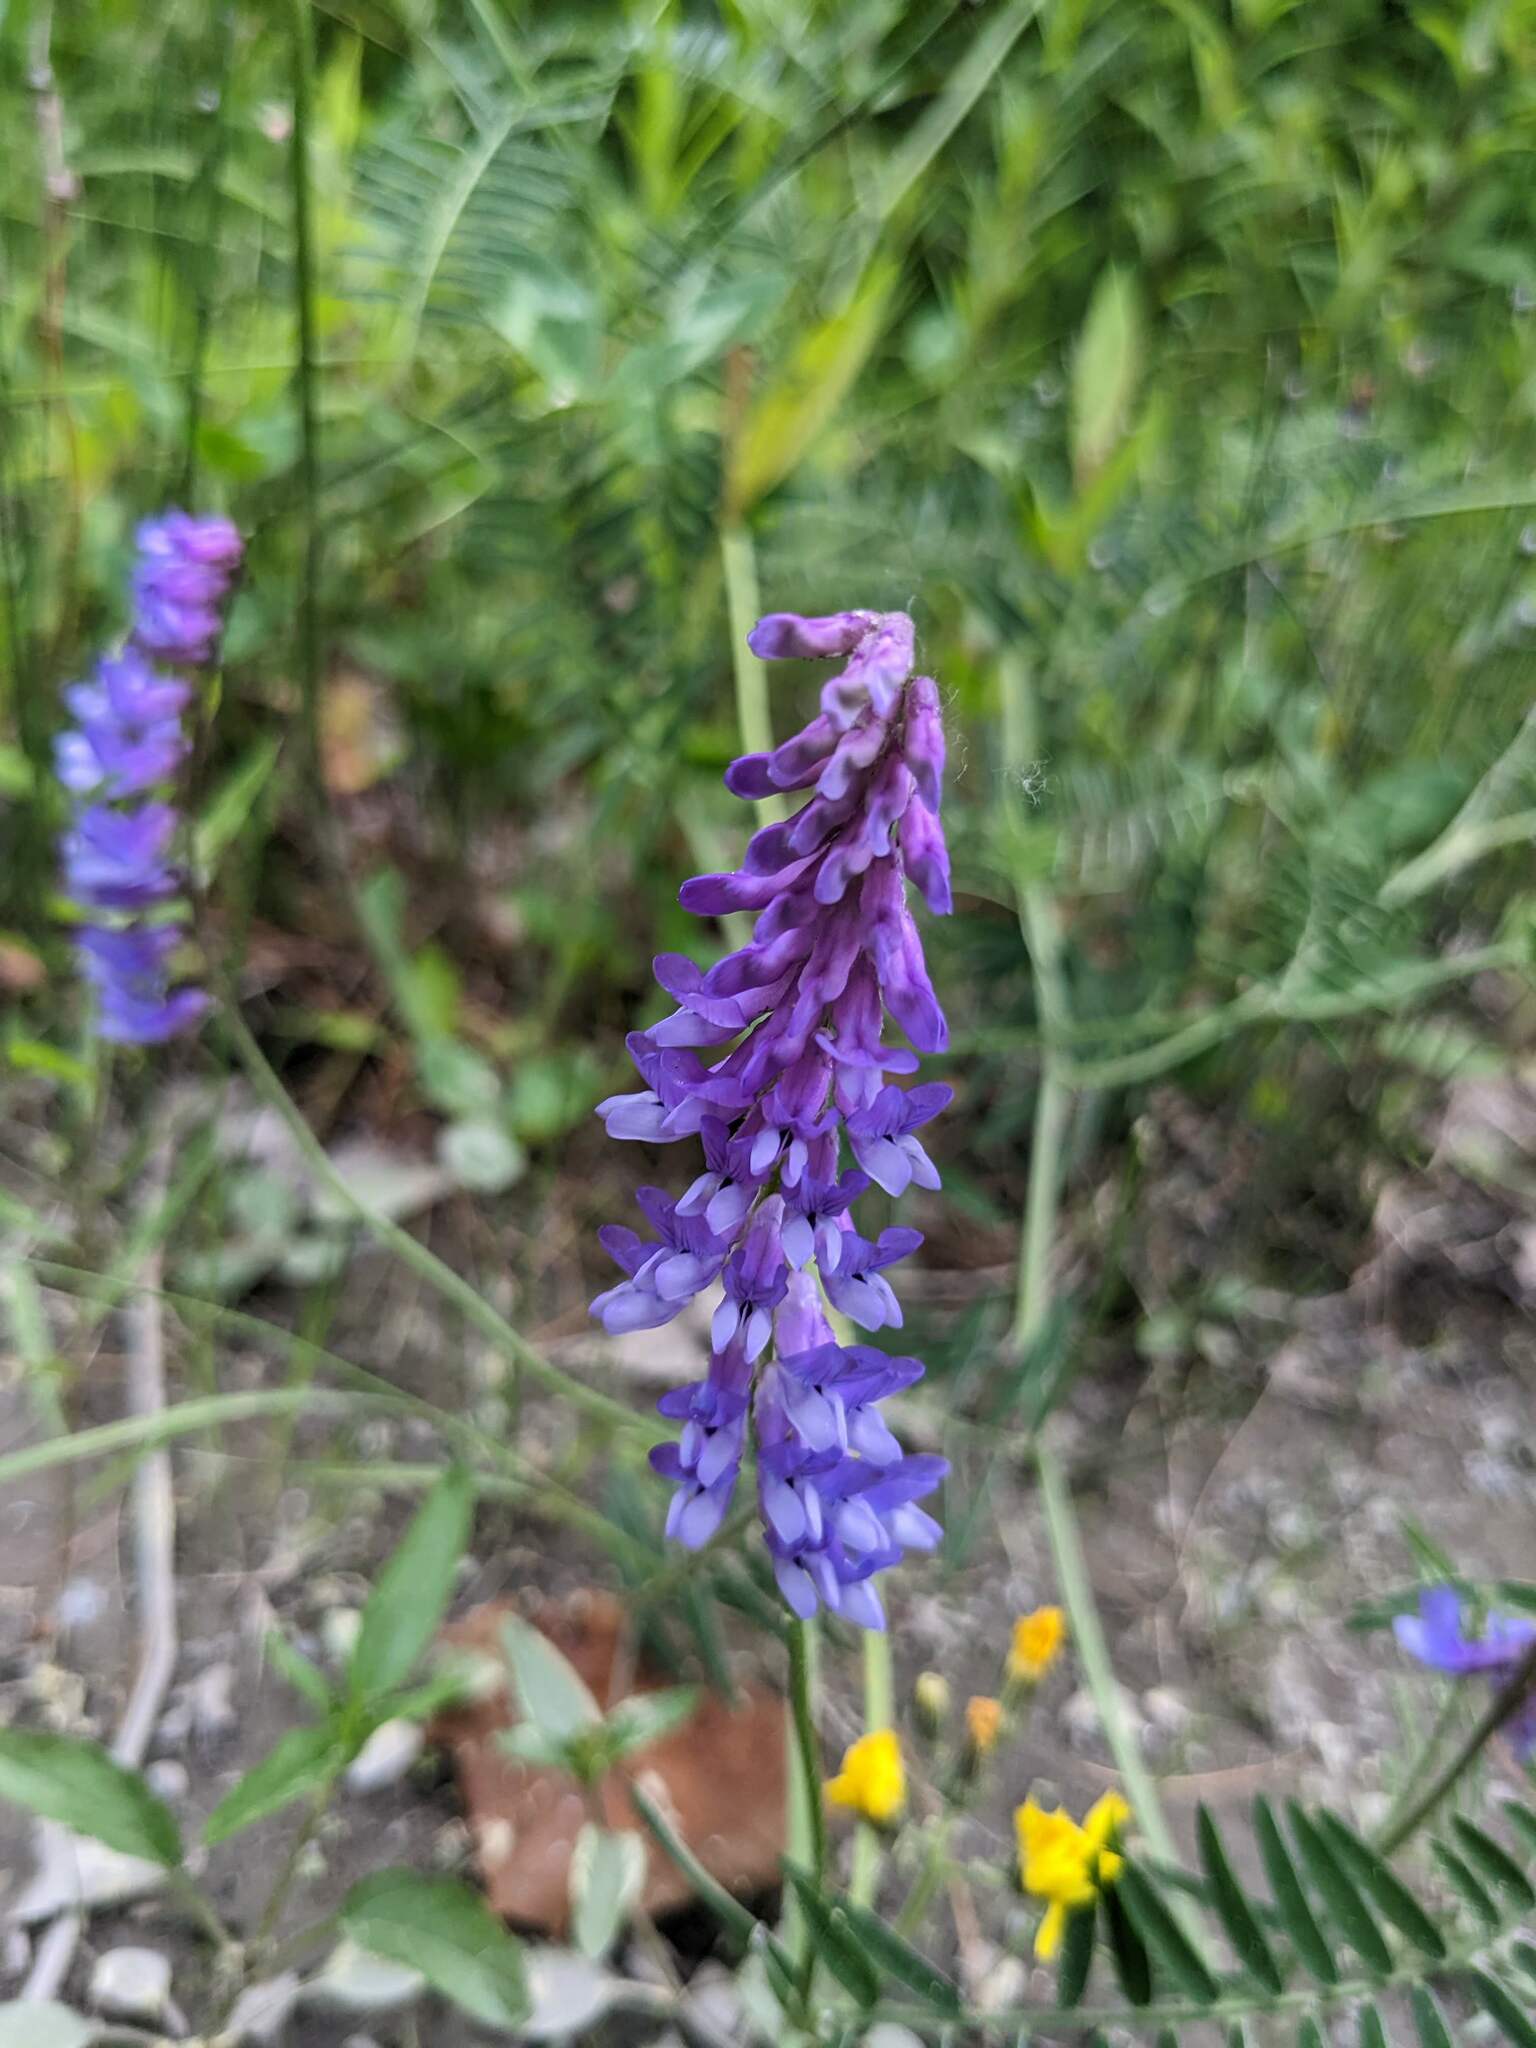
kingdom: Plantae
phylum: Tracheophyta
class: Magnoliopsida
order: Fabales
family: Fabaceae
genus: Vicia
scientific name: Vicia cracca
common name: Bird vetch
